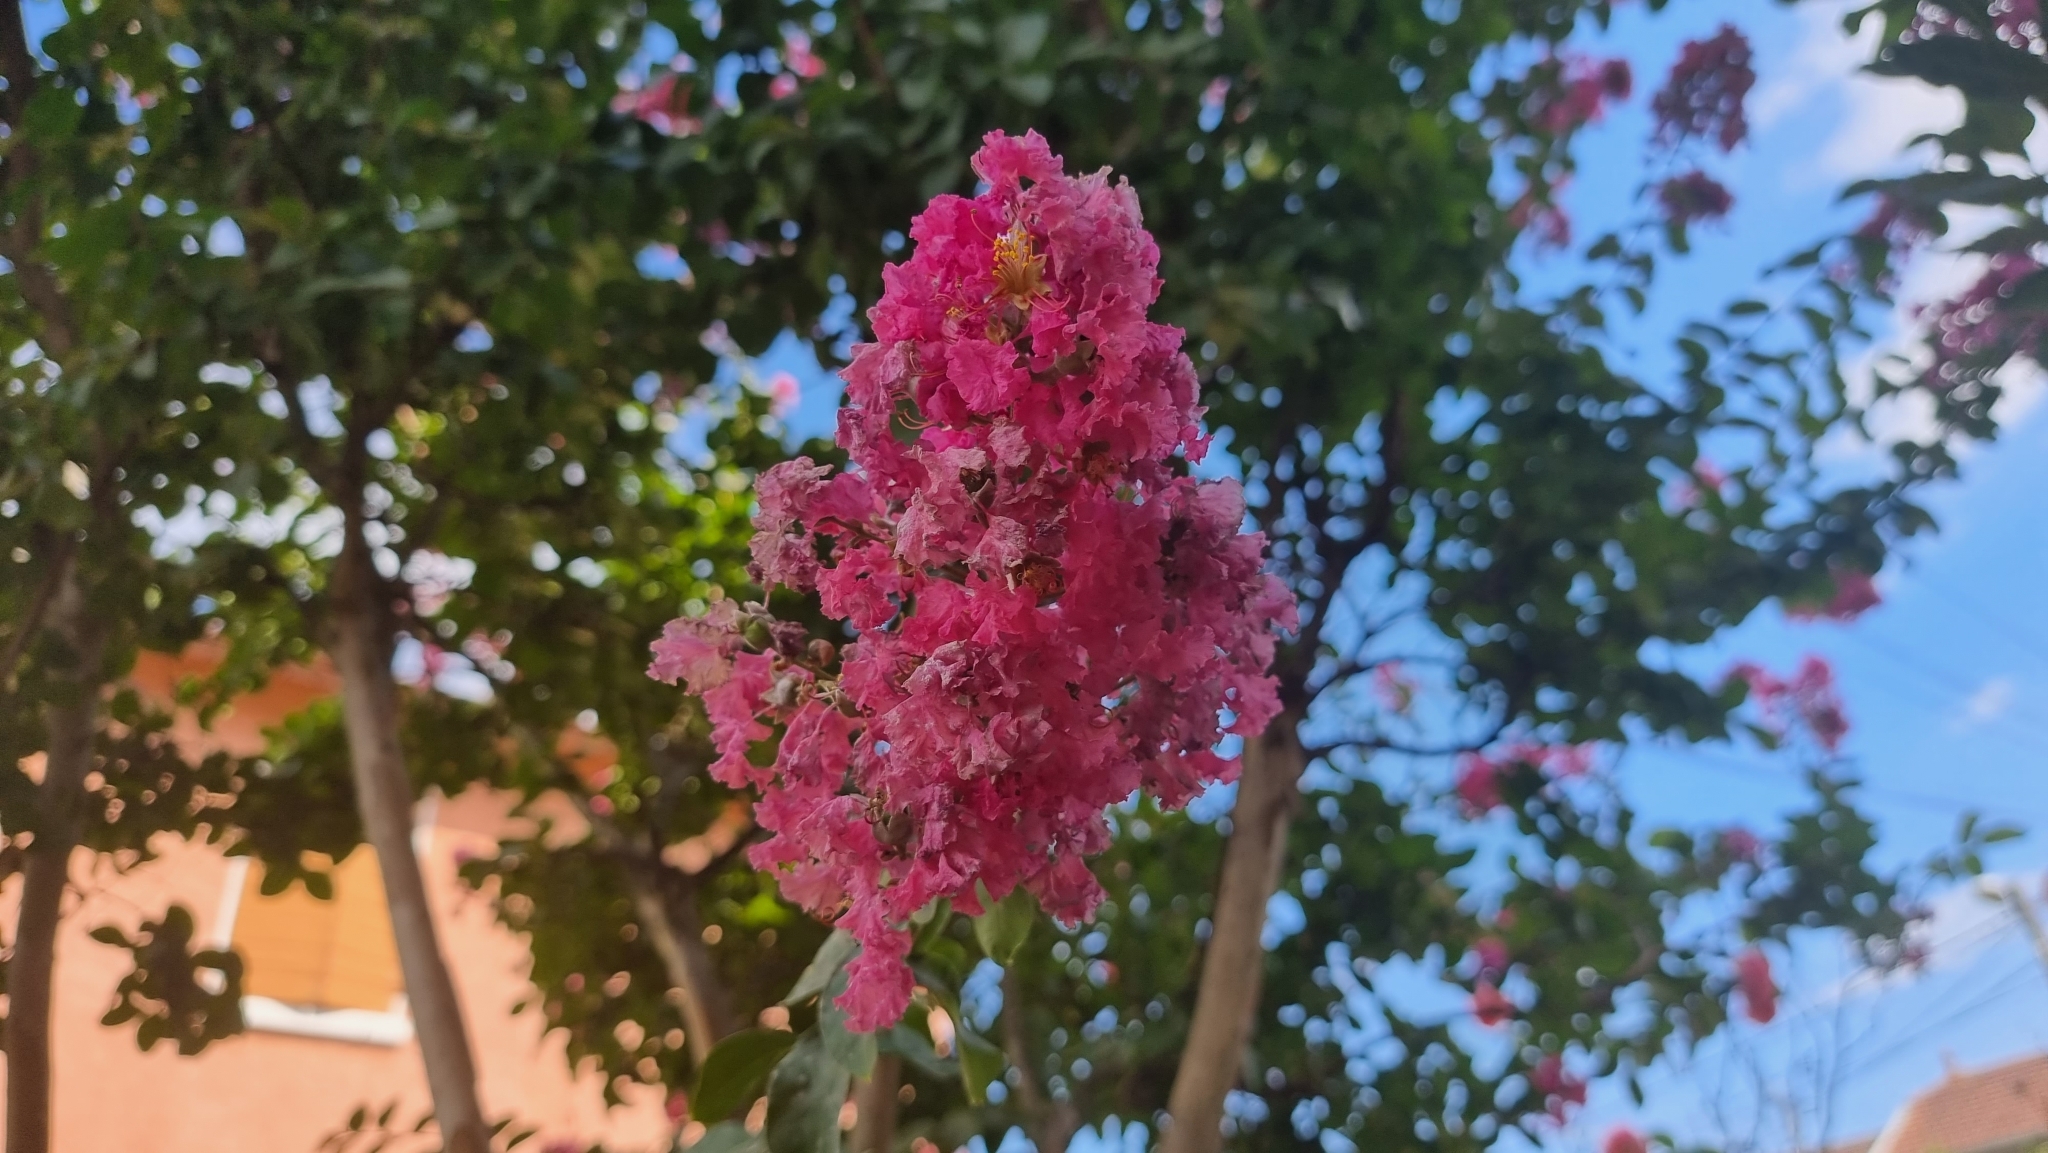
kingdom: Plantae
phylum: Tracheophyta
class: Magnoliopsida
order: Myrtales
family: Lythraceae
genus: Lagerstroemia
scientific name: Lagerstroemia indica
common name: Crape-myrtle
